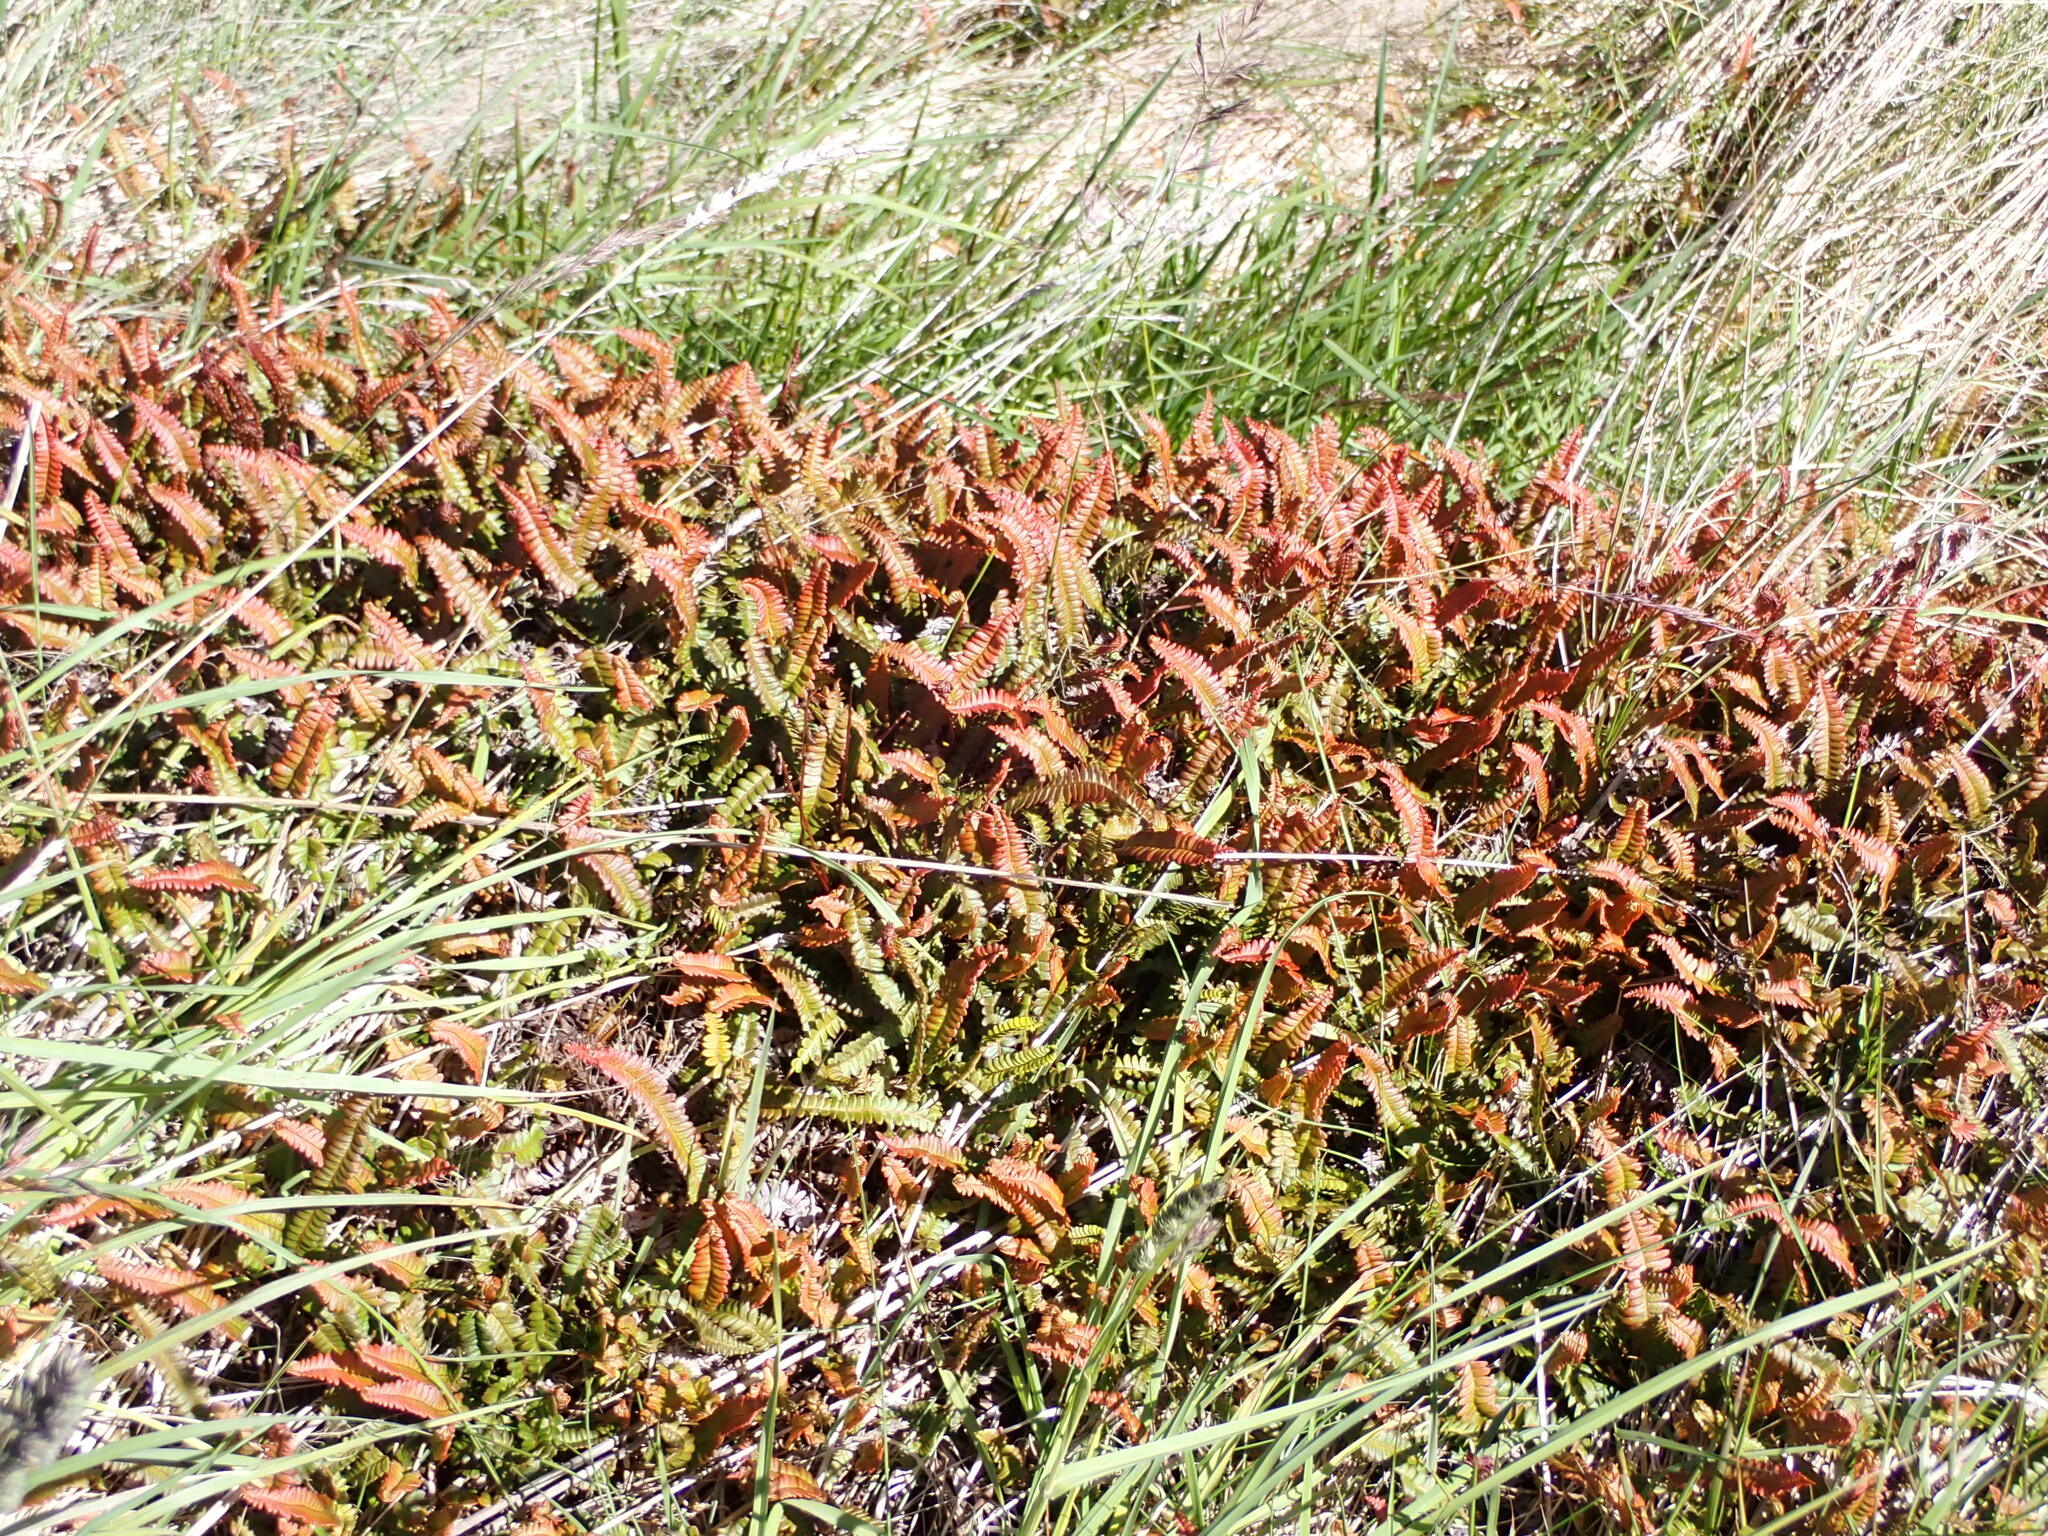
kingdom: Plantae
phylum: Tracheophyta
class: Polypodiopsida
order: Polypodiales
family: Blechnaceae
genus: Austroblechnum
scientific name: Austroblechnum penna-marina
